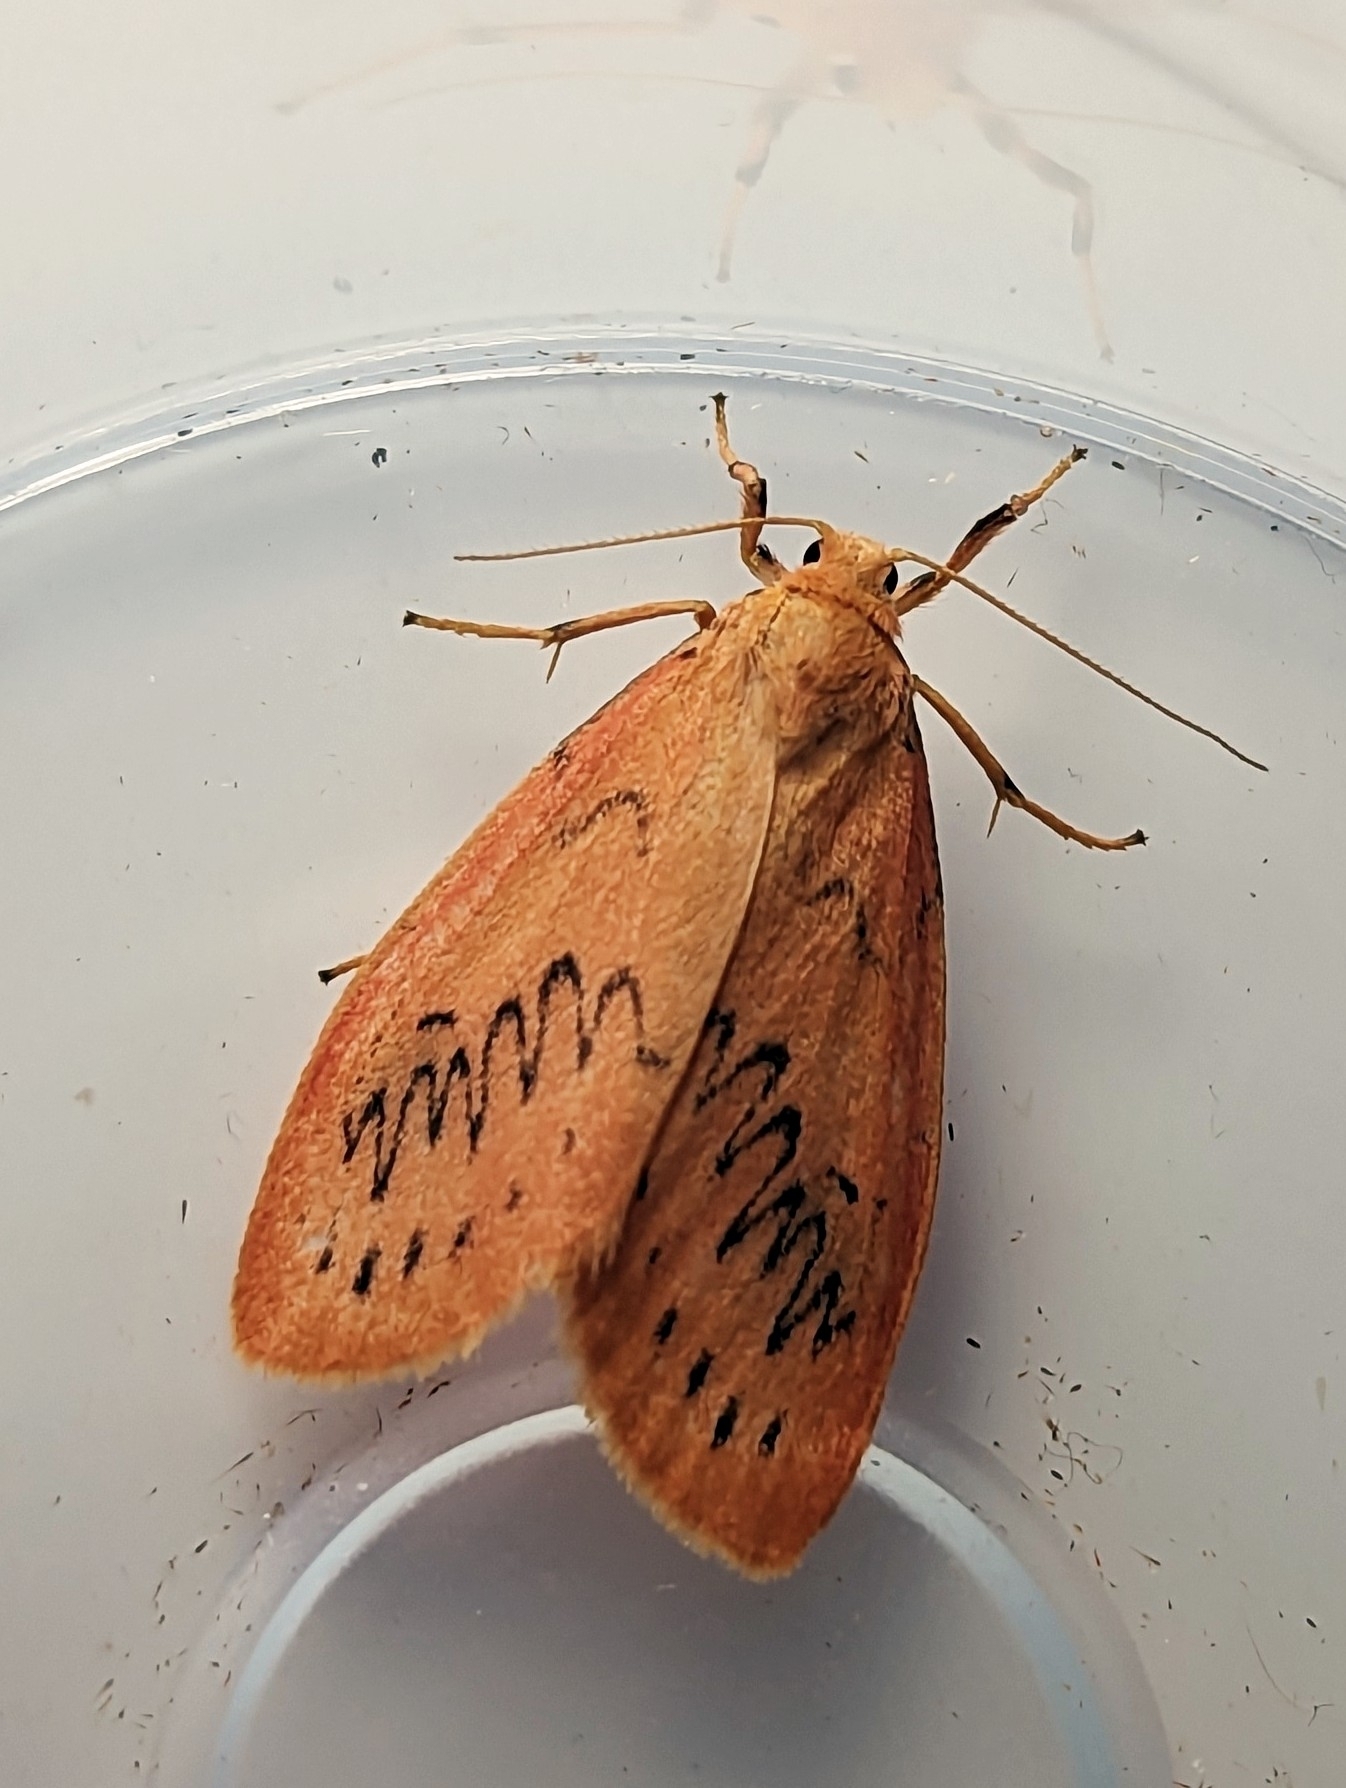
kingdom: Animalia
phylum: Arthropoda
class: Insecta
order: Lepidoptera
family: Erebidae
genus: Miltochrista
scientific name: Miltochrista miniata
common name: Rosy footman
